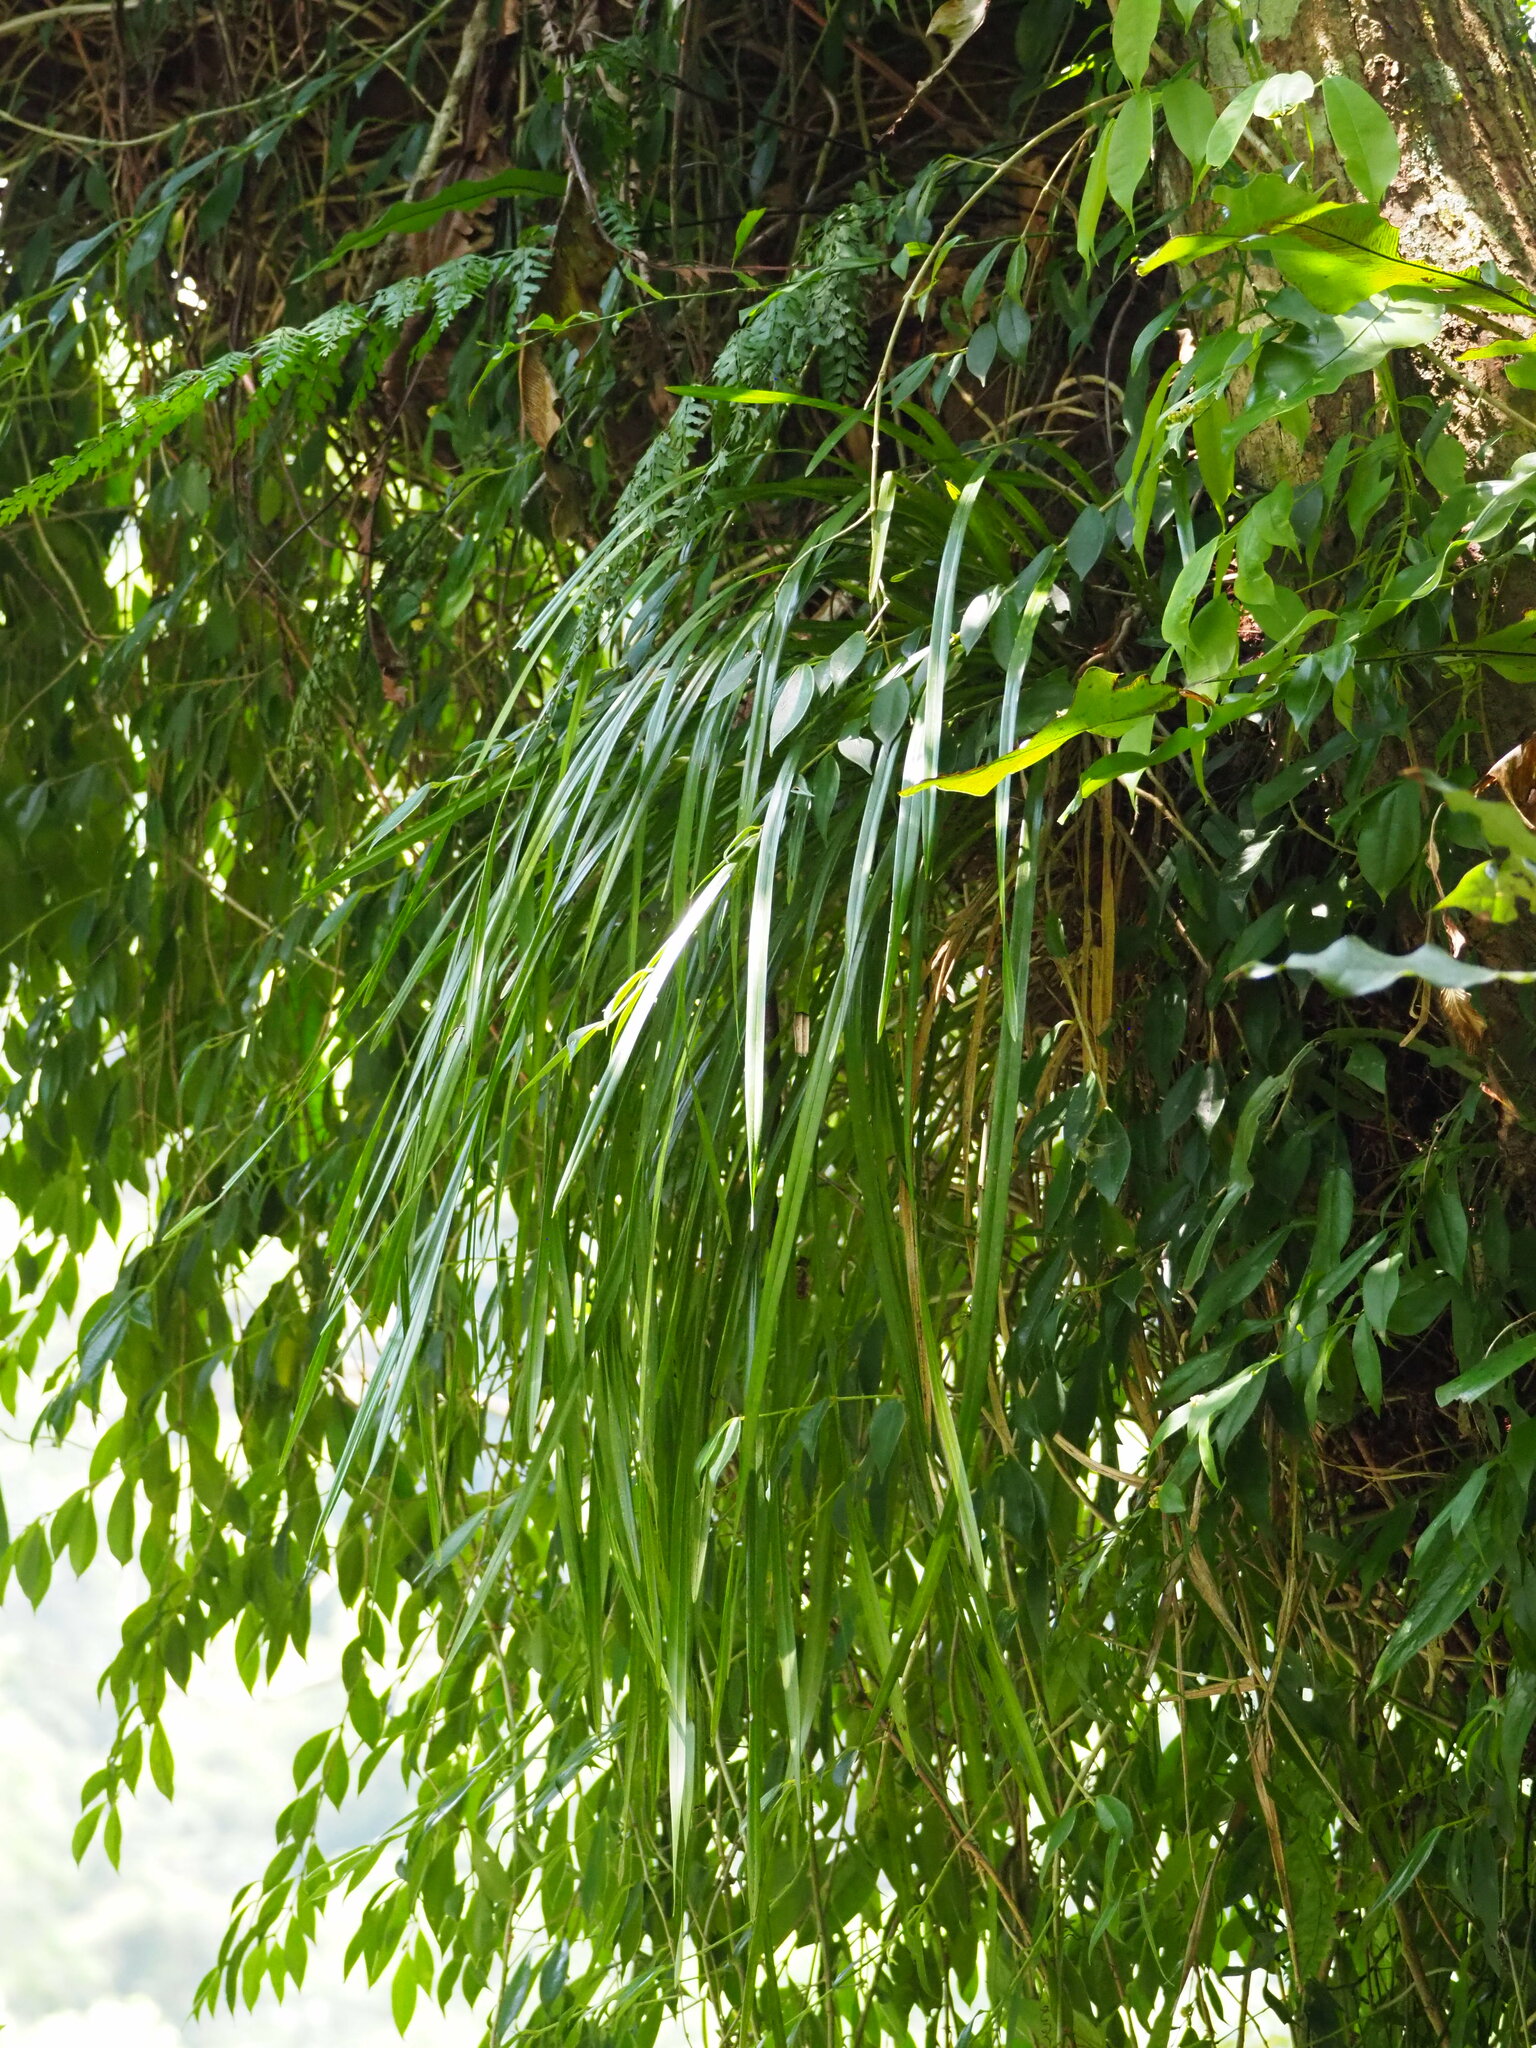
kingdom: Plantae
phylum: Tracheophyta
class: Liliopsida
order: Asparagales
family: Orchidaceae
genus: Cymbidium
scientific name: Cymbidium dayanum
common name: Orchid
